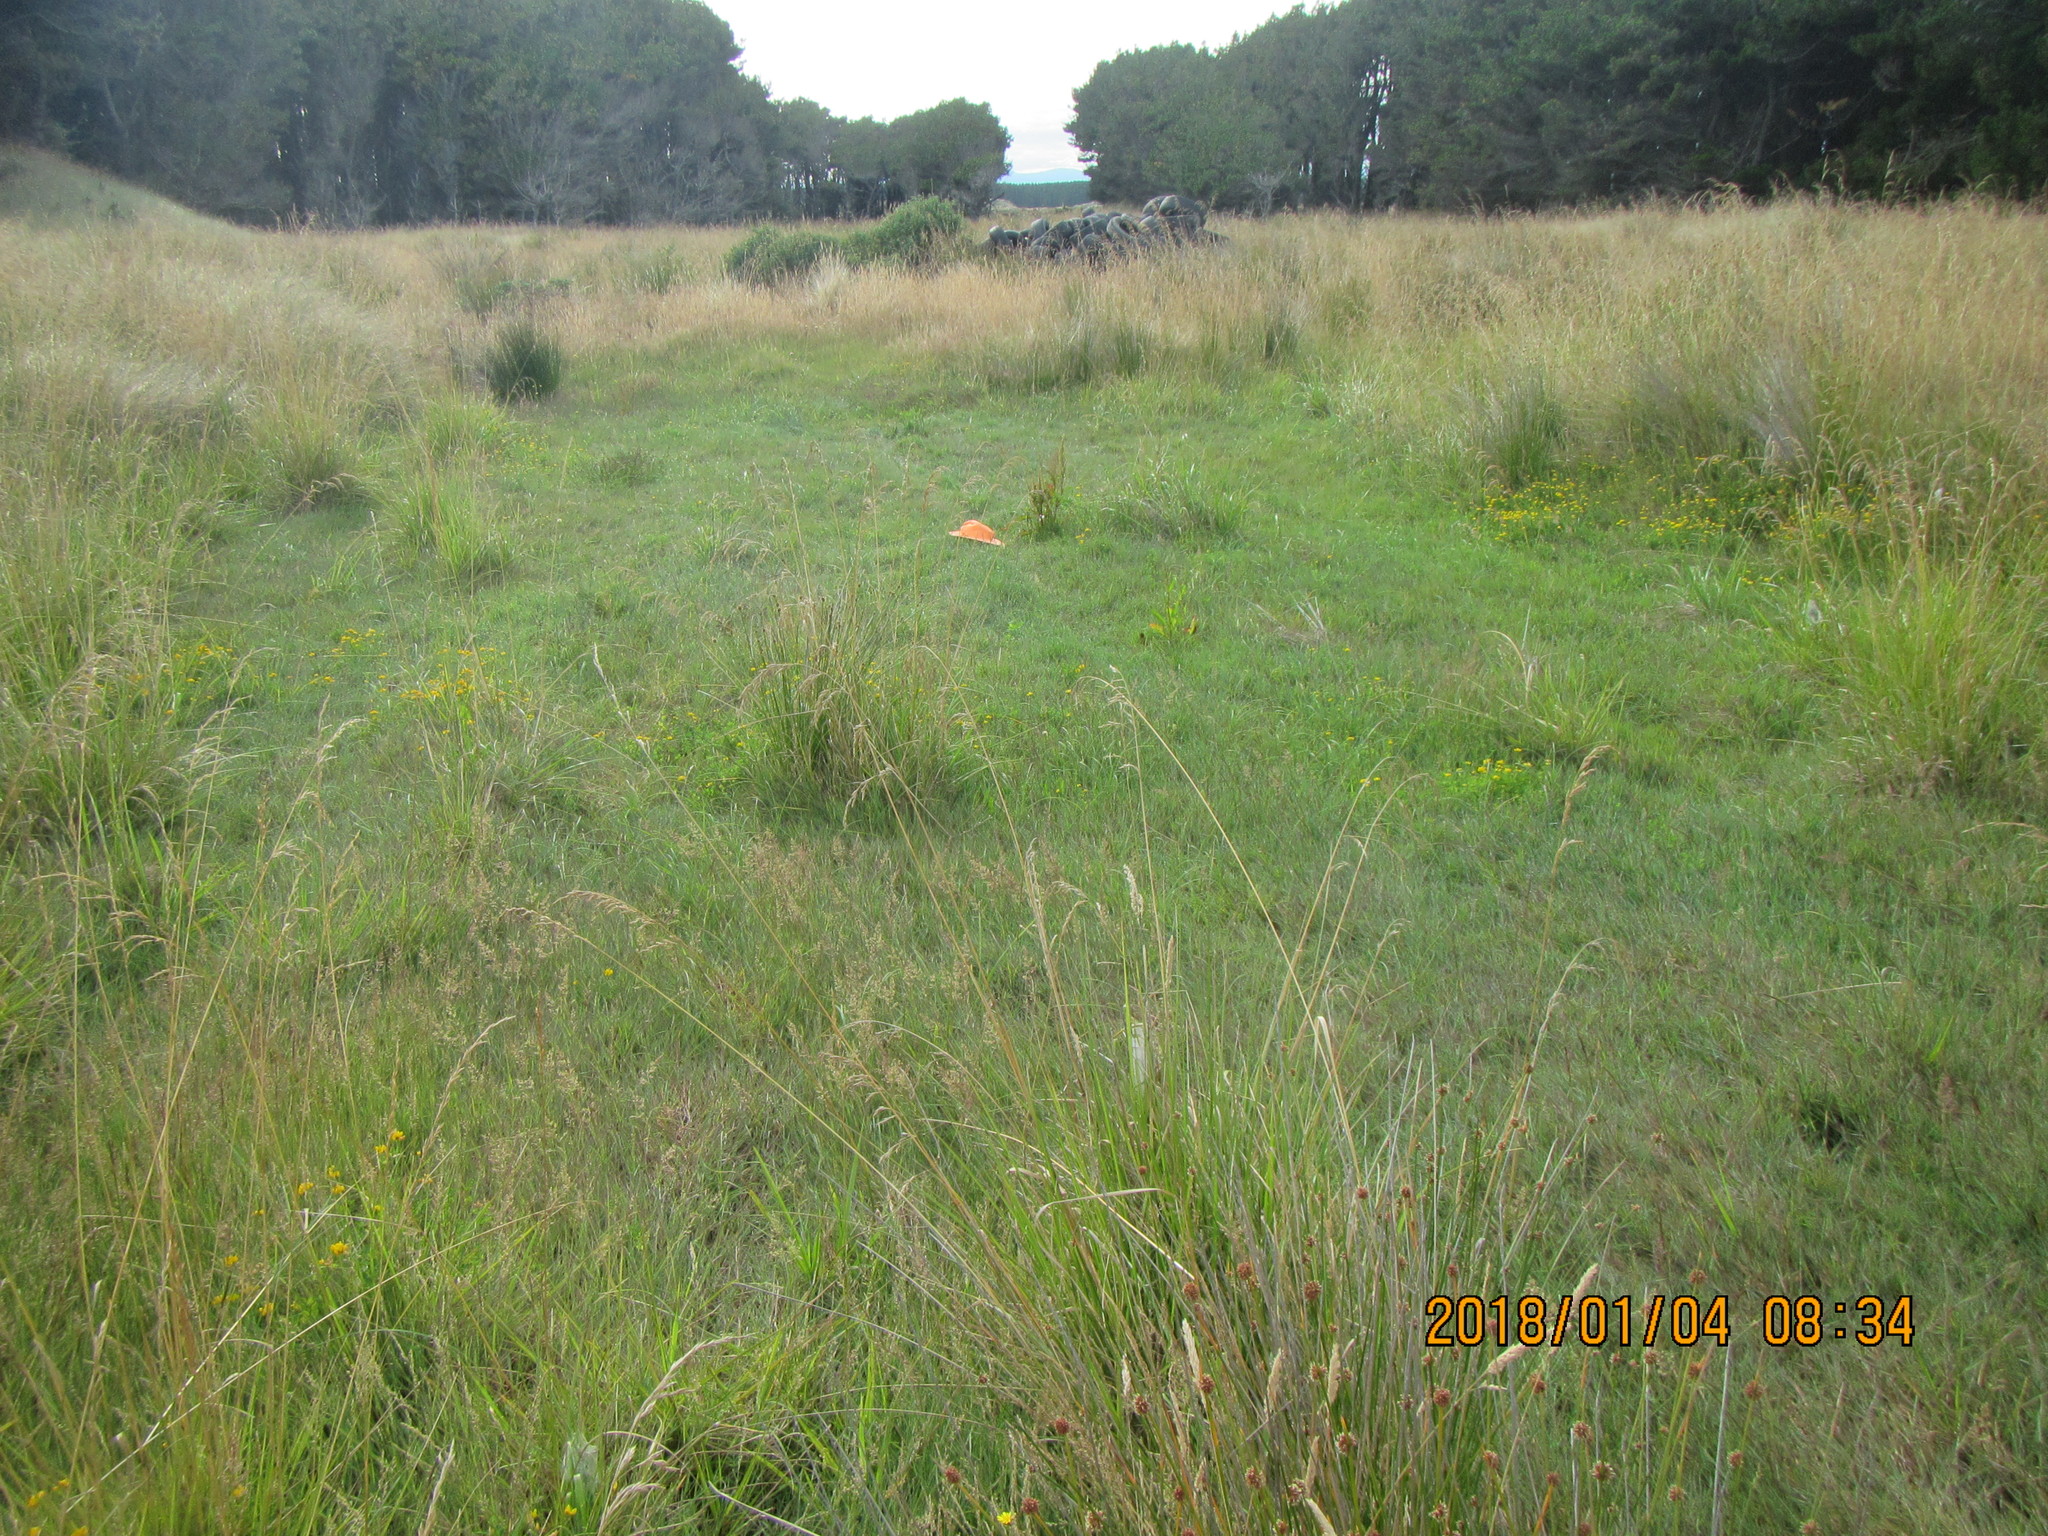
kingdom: Plantae
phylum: Tracheophyta
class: Magnoliopsida
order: Fabales
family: Fabaceae
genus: Lotus
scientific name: Lotus pedunculatus
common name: Greater birdsfoot-trefoil
